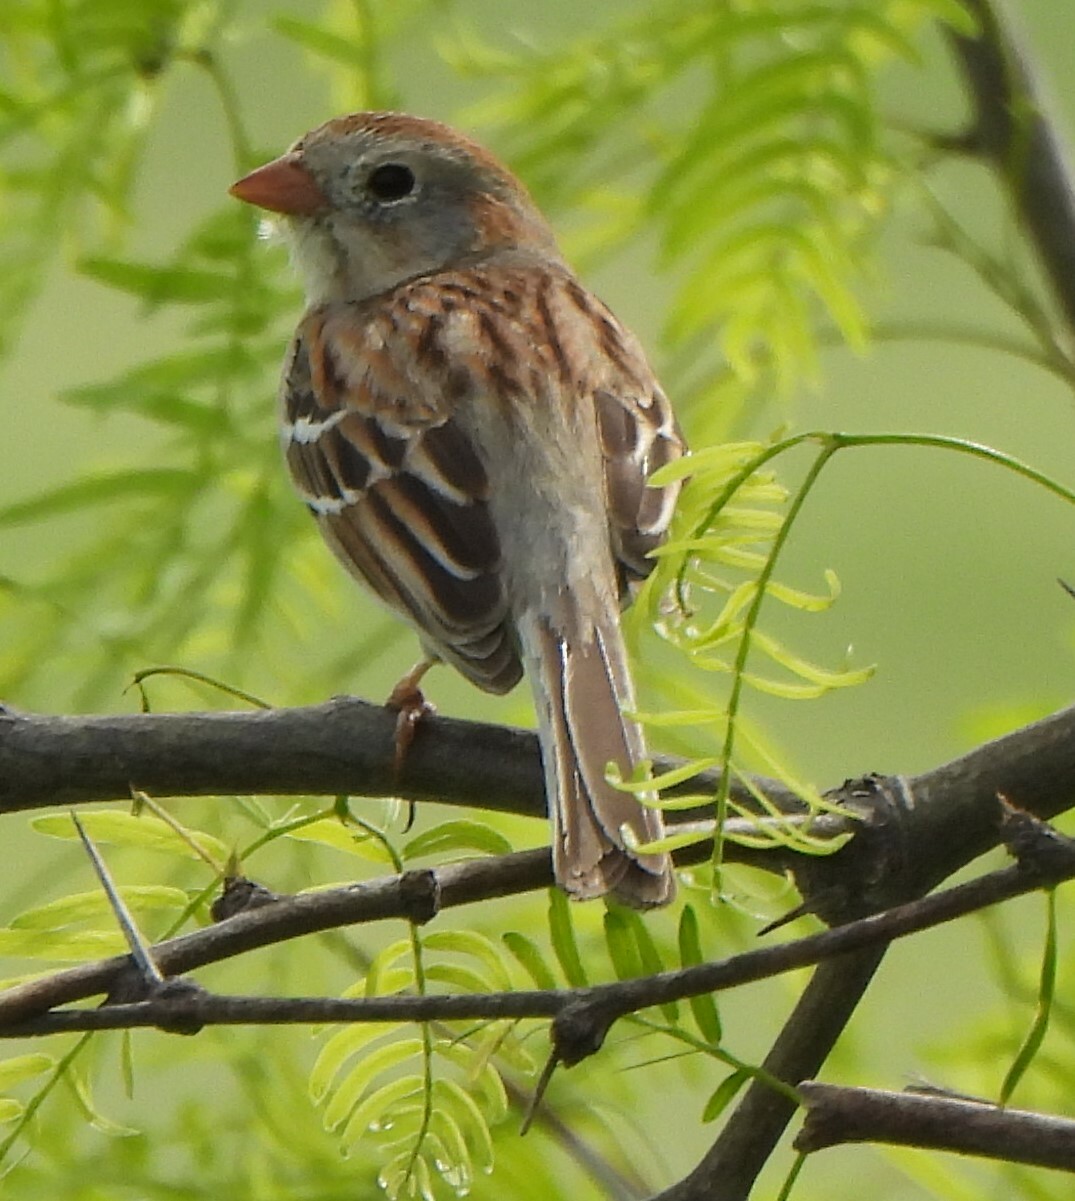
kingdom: Animalia
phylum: Chordata
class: Aves
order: Passeriformes
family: Passerellidae
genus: Spizella
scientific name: Spizella pusilla
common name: Field sparrow
